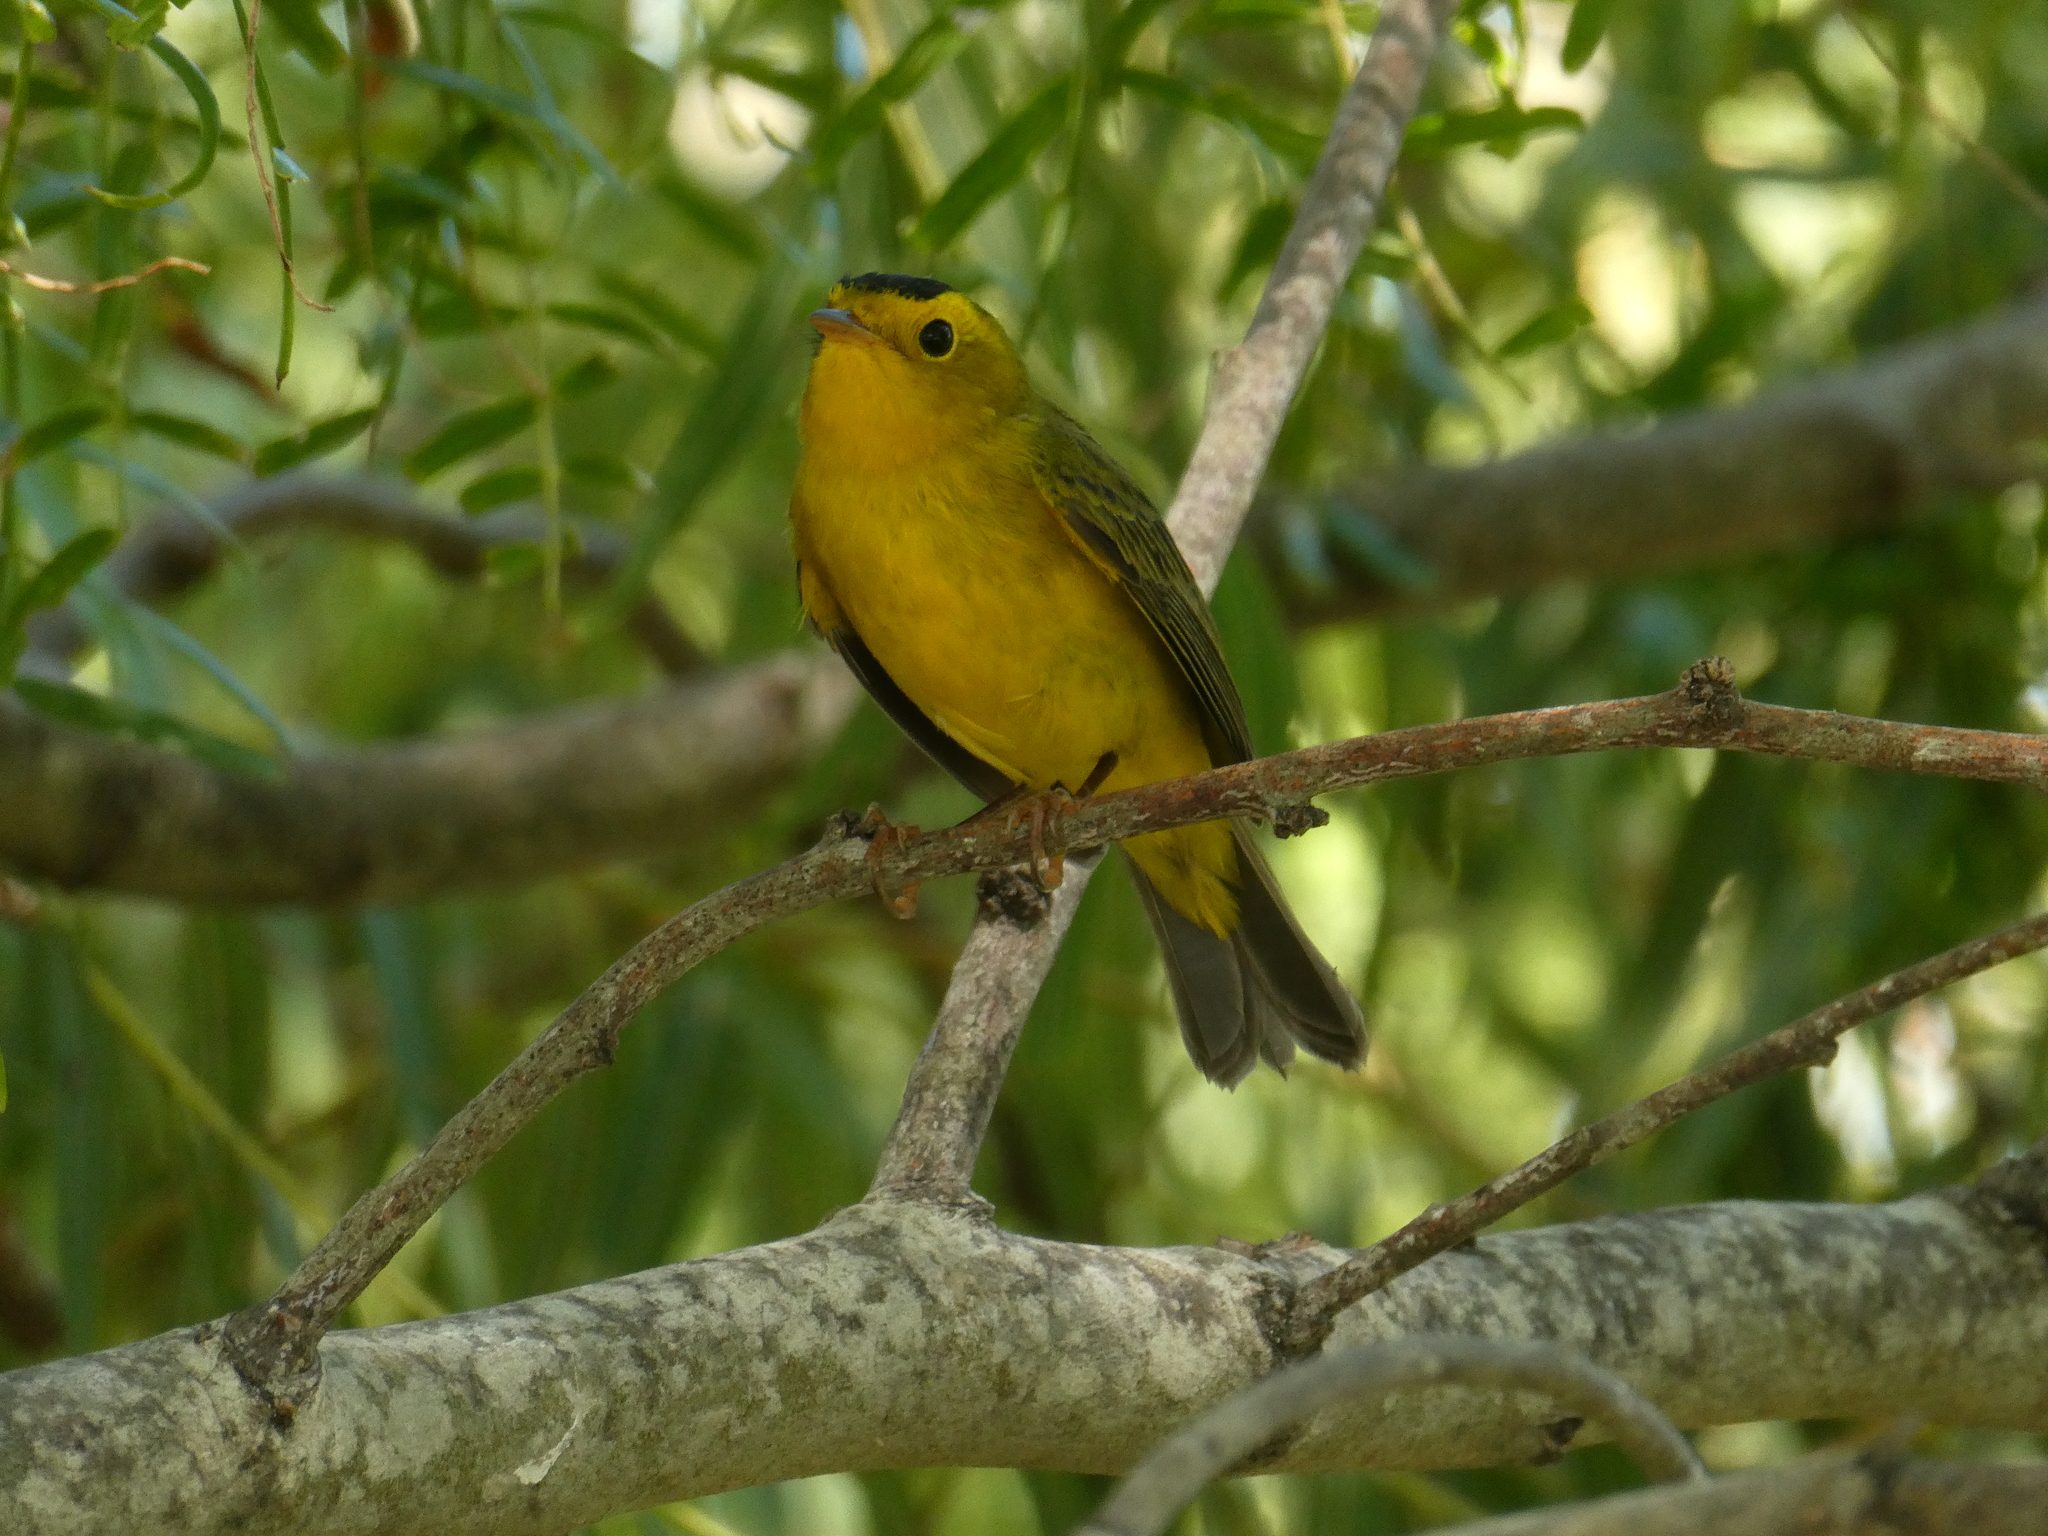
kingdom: Animalia
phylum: Chordata
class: Aves
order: Passeriformes
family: Parulidae
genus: Cardellina
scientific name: Cardellina pusilla
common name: Wilson's warbler
